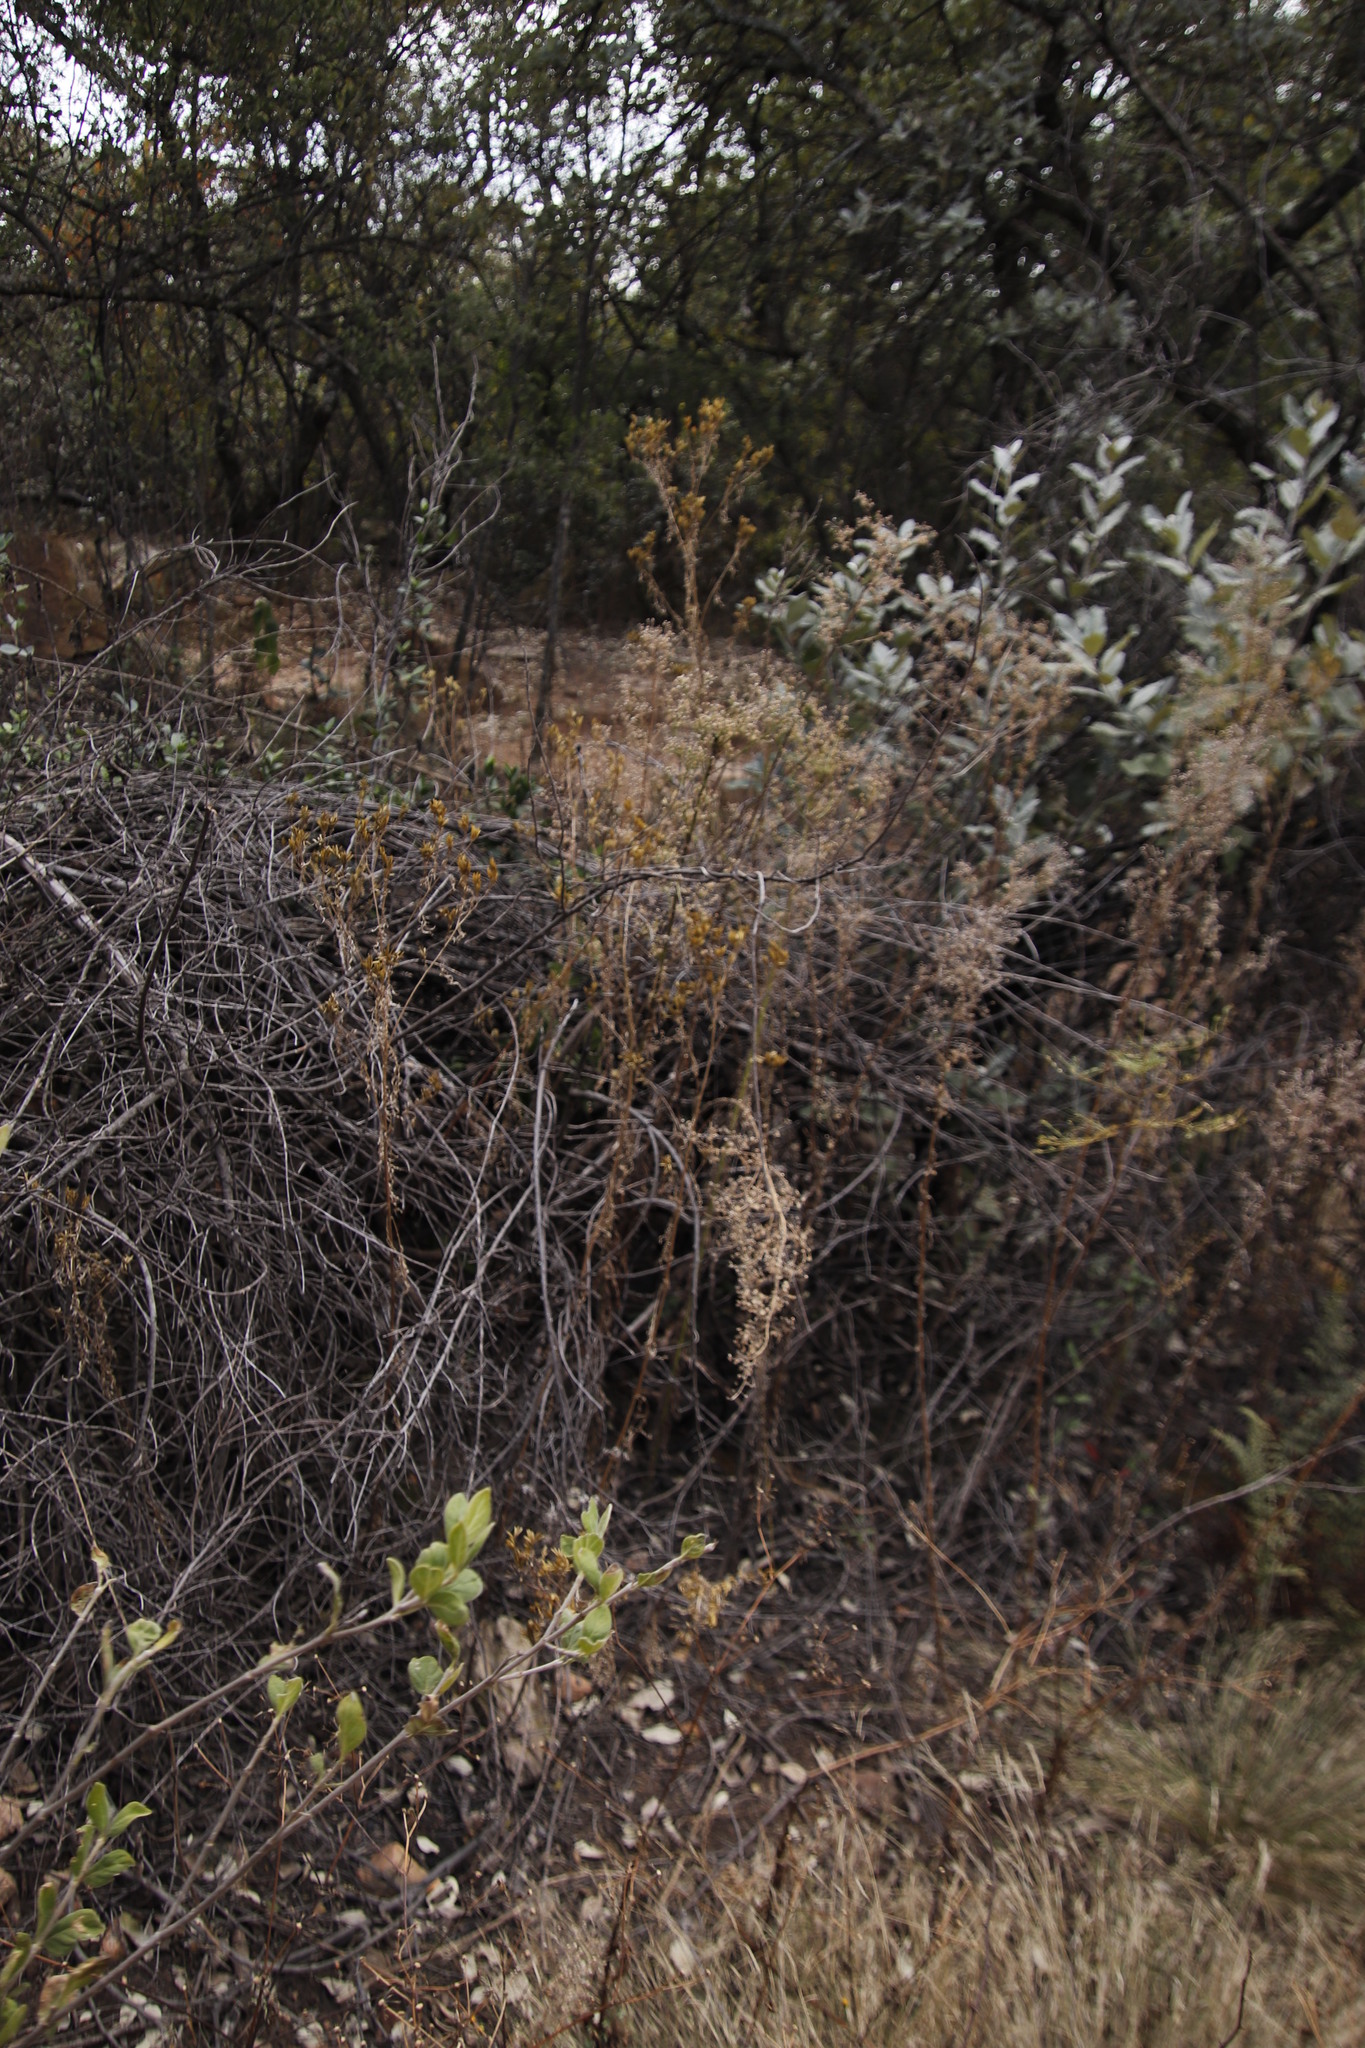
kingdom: Plantae
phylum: Tracheophyta
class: Magnoliopsida
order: Asterales
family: Asteraceae
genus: Tagetes
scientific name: Tagetes minuta
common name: Muster john henry
